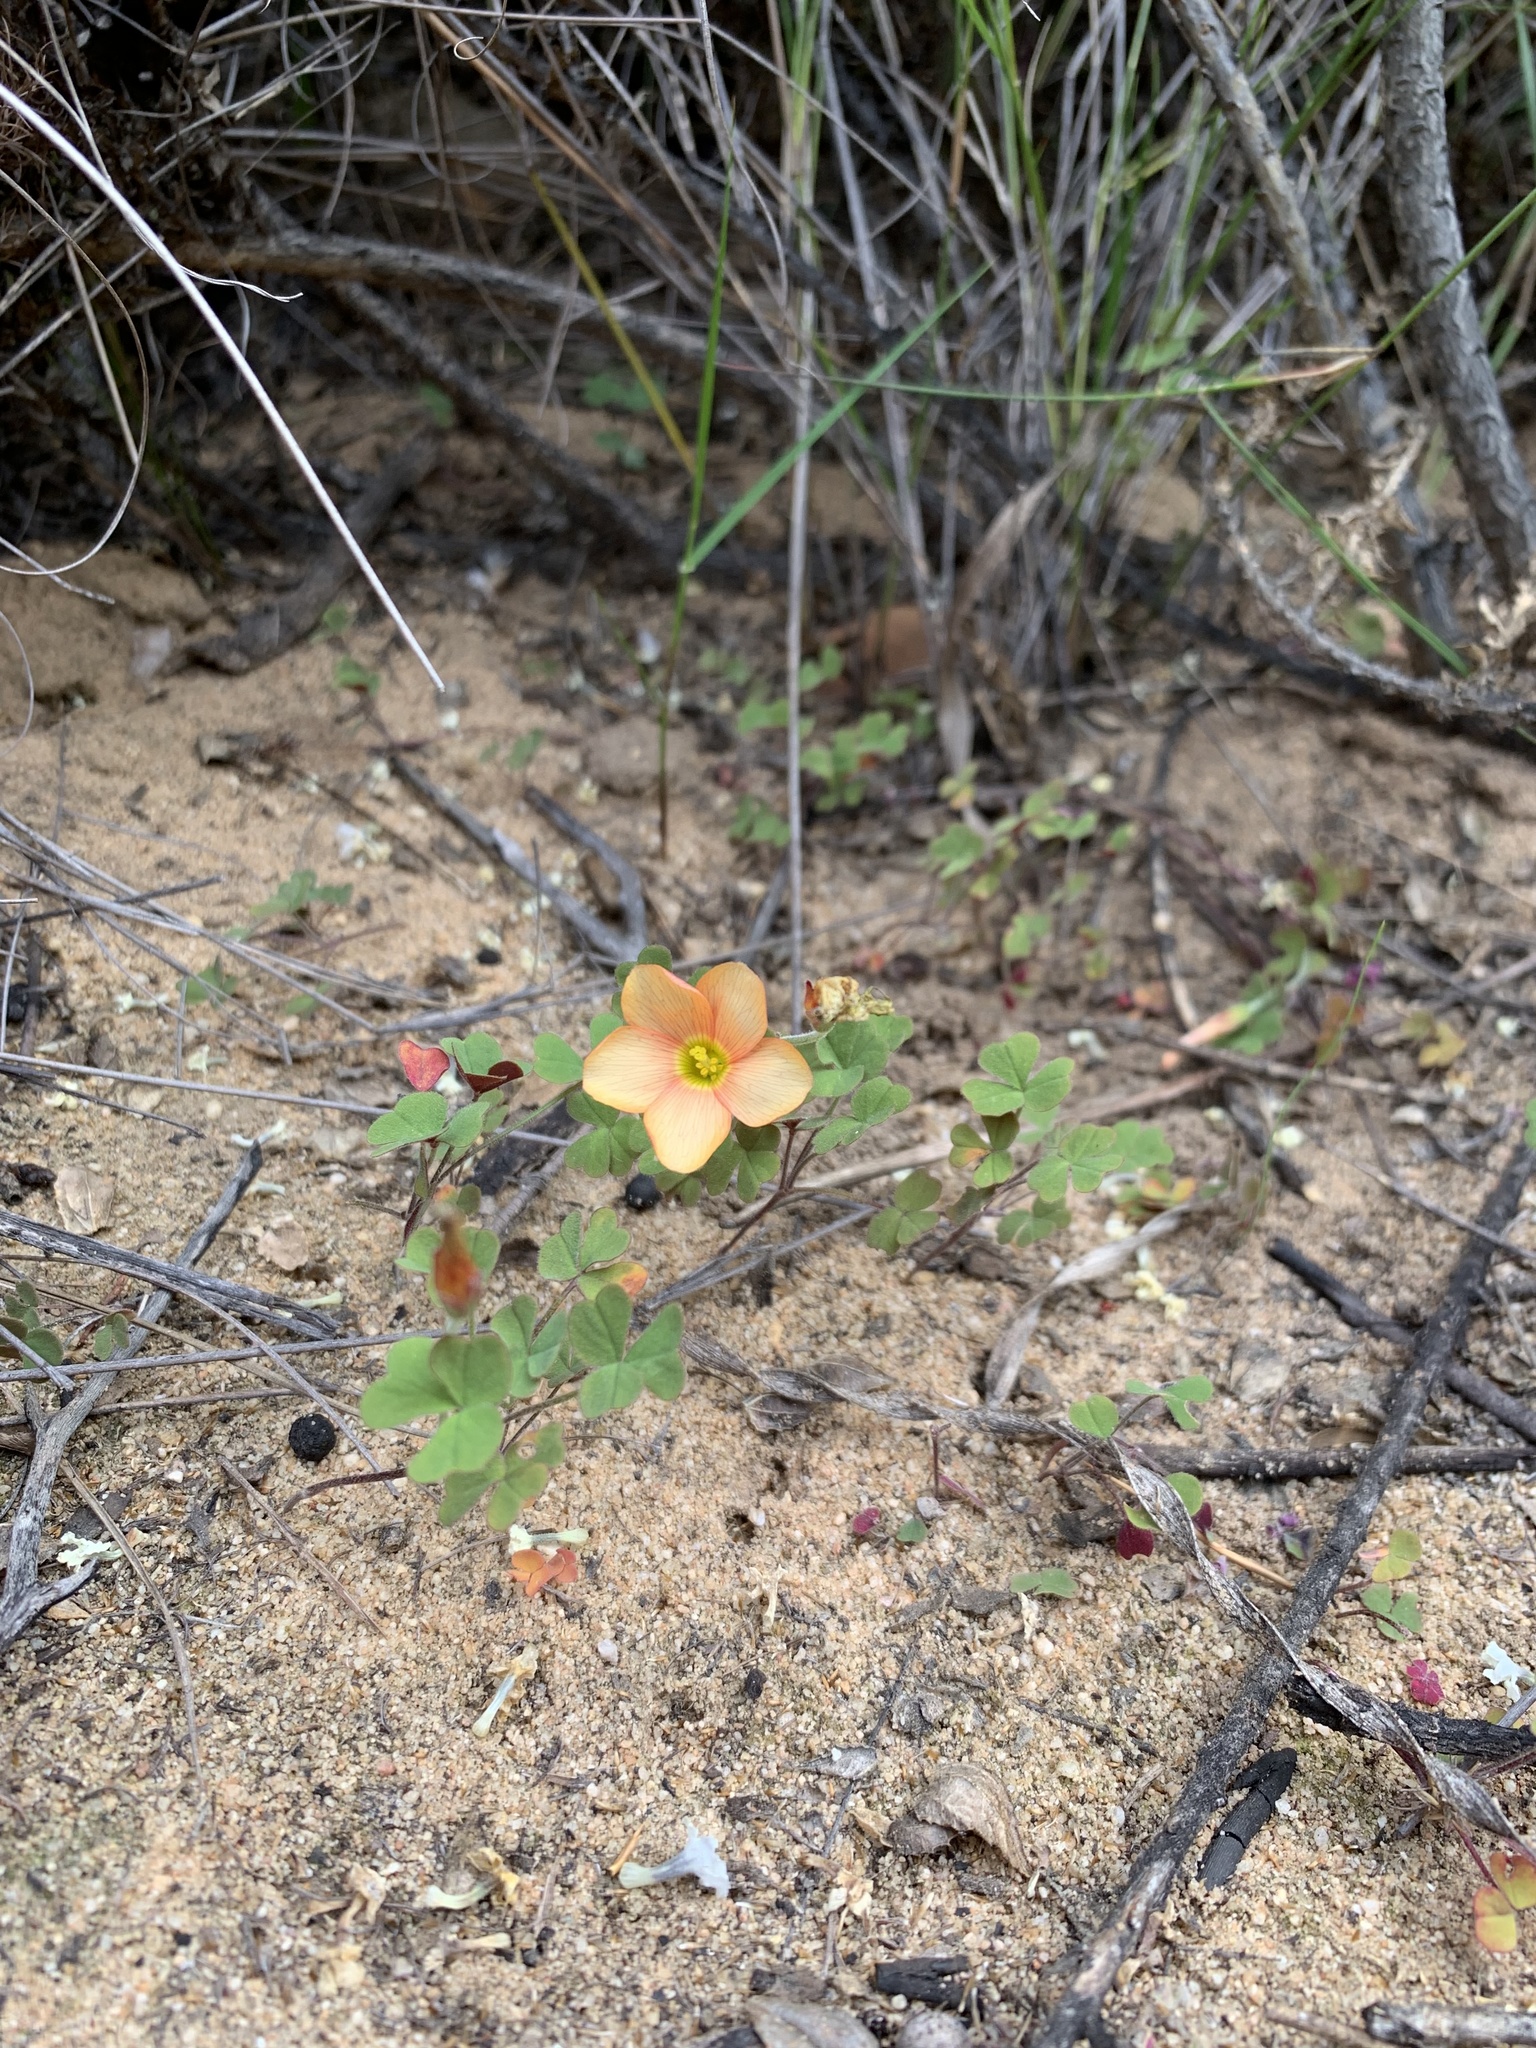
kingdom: Plantae
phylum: Tracheophyta
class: Magnoliopsida
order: Oxalidales
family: Oxalidaceae
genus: Oxalis
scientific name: Oxalis obtusa
